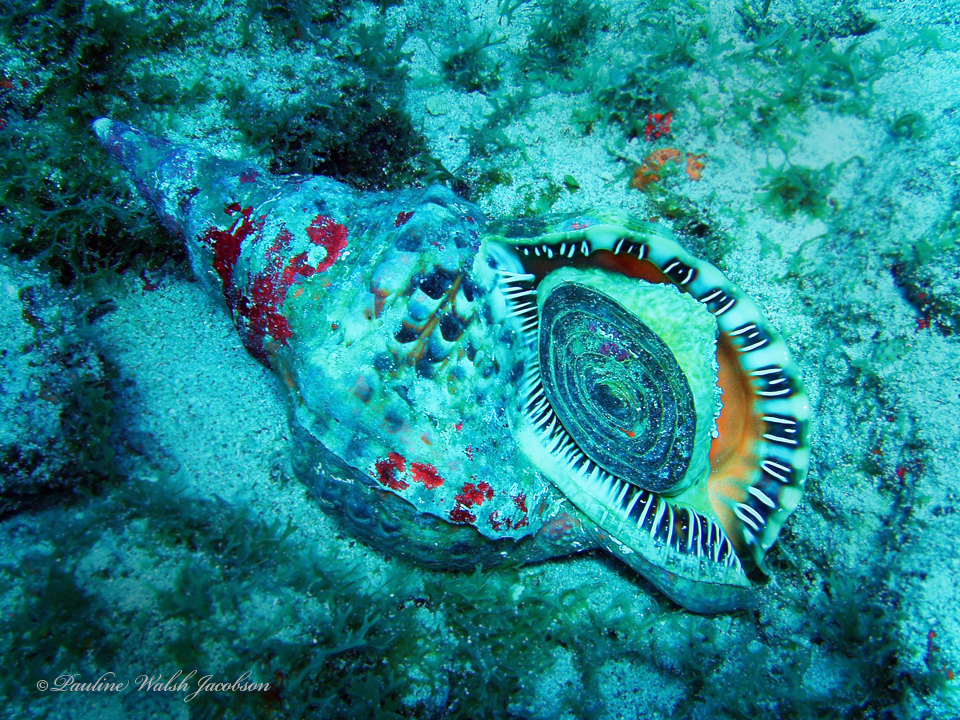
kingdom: Animalia
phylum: Mollusca
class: Gastropoda
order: Littorinimorpha
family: Charoniidae
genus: Charonia
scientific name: Charonia variegata
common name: Atlantic triton
